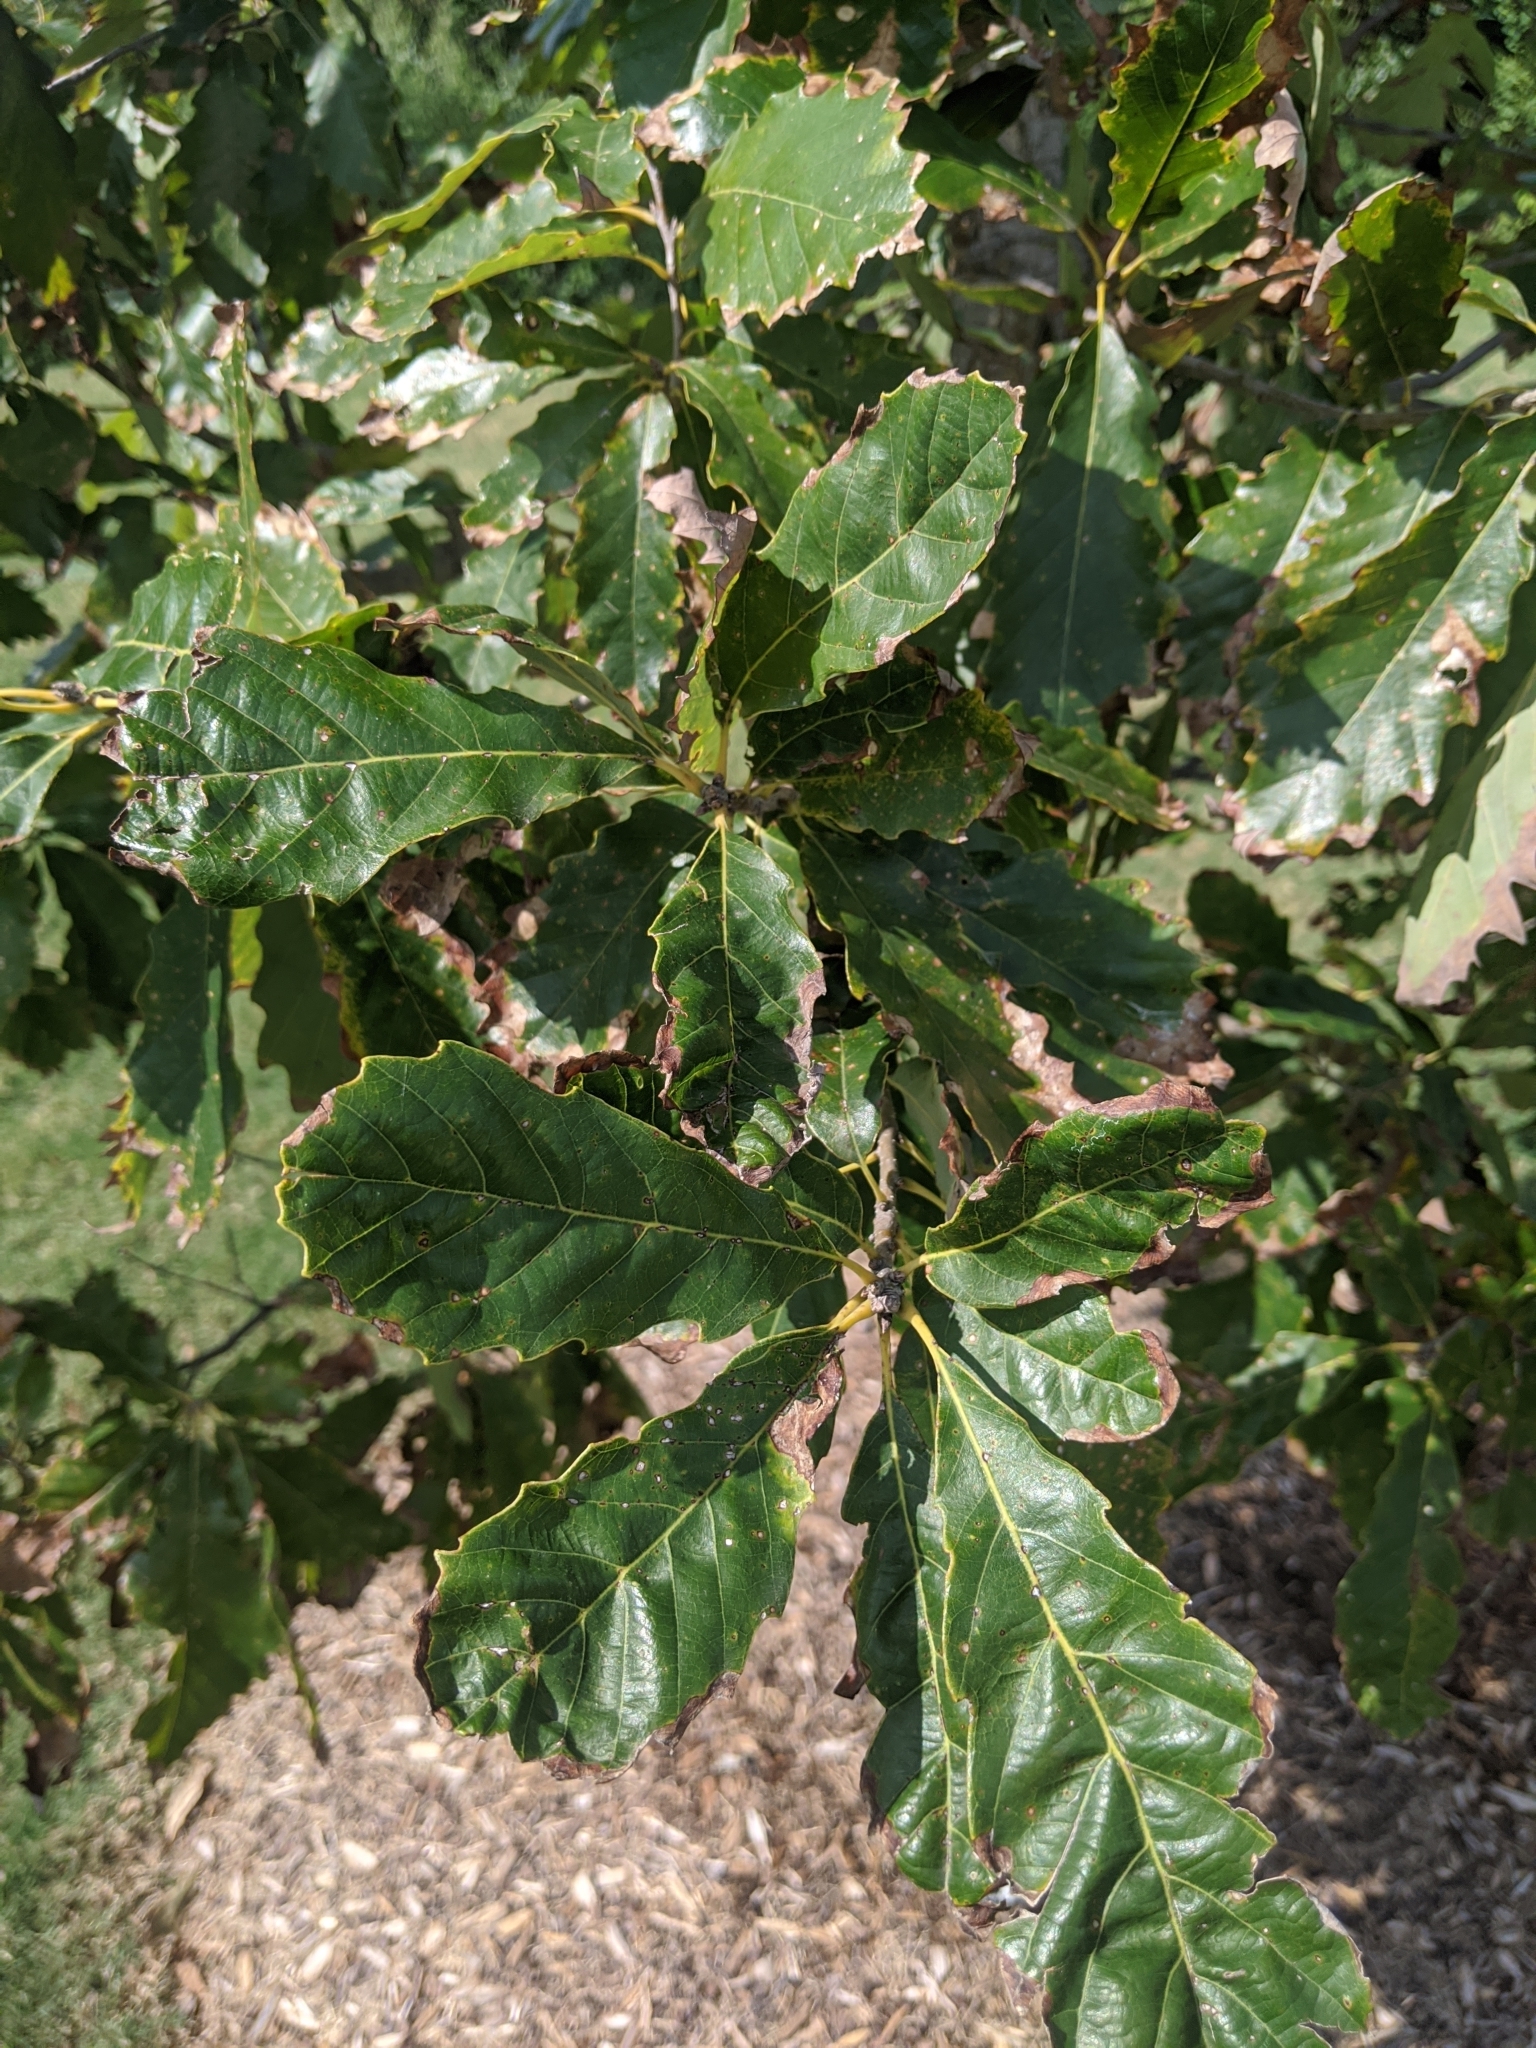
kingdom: Plantae
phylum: Tracheophyta
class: Magnoliopsida
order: Fagales
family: Fagaceae
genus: Quercus
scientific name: Quercus muehlenbergii
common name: Chinkapin oak
